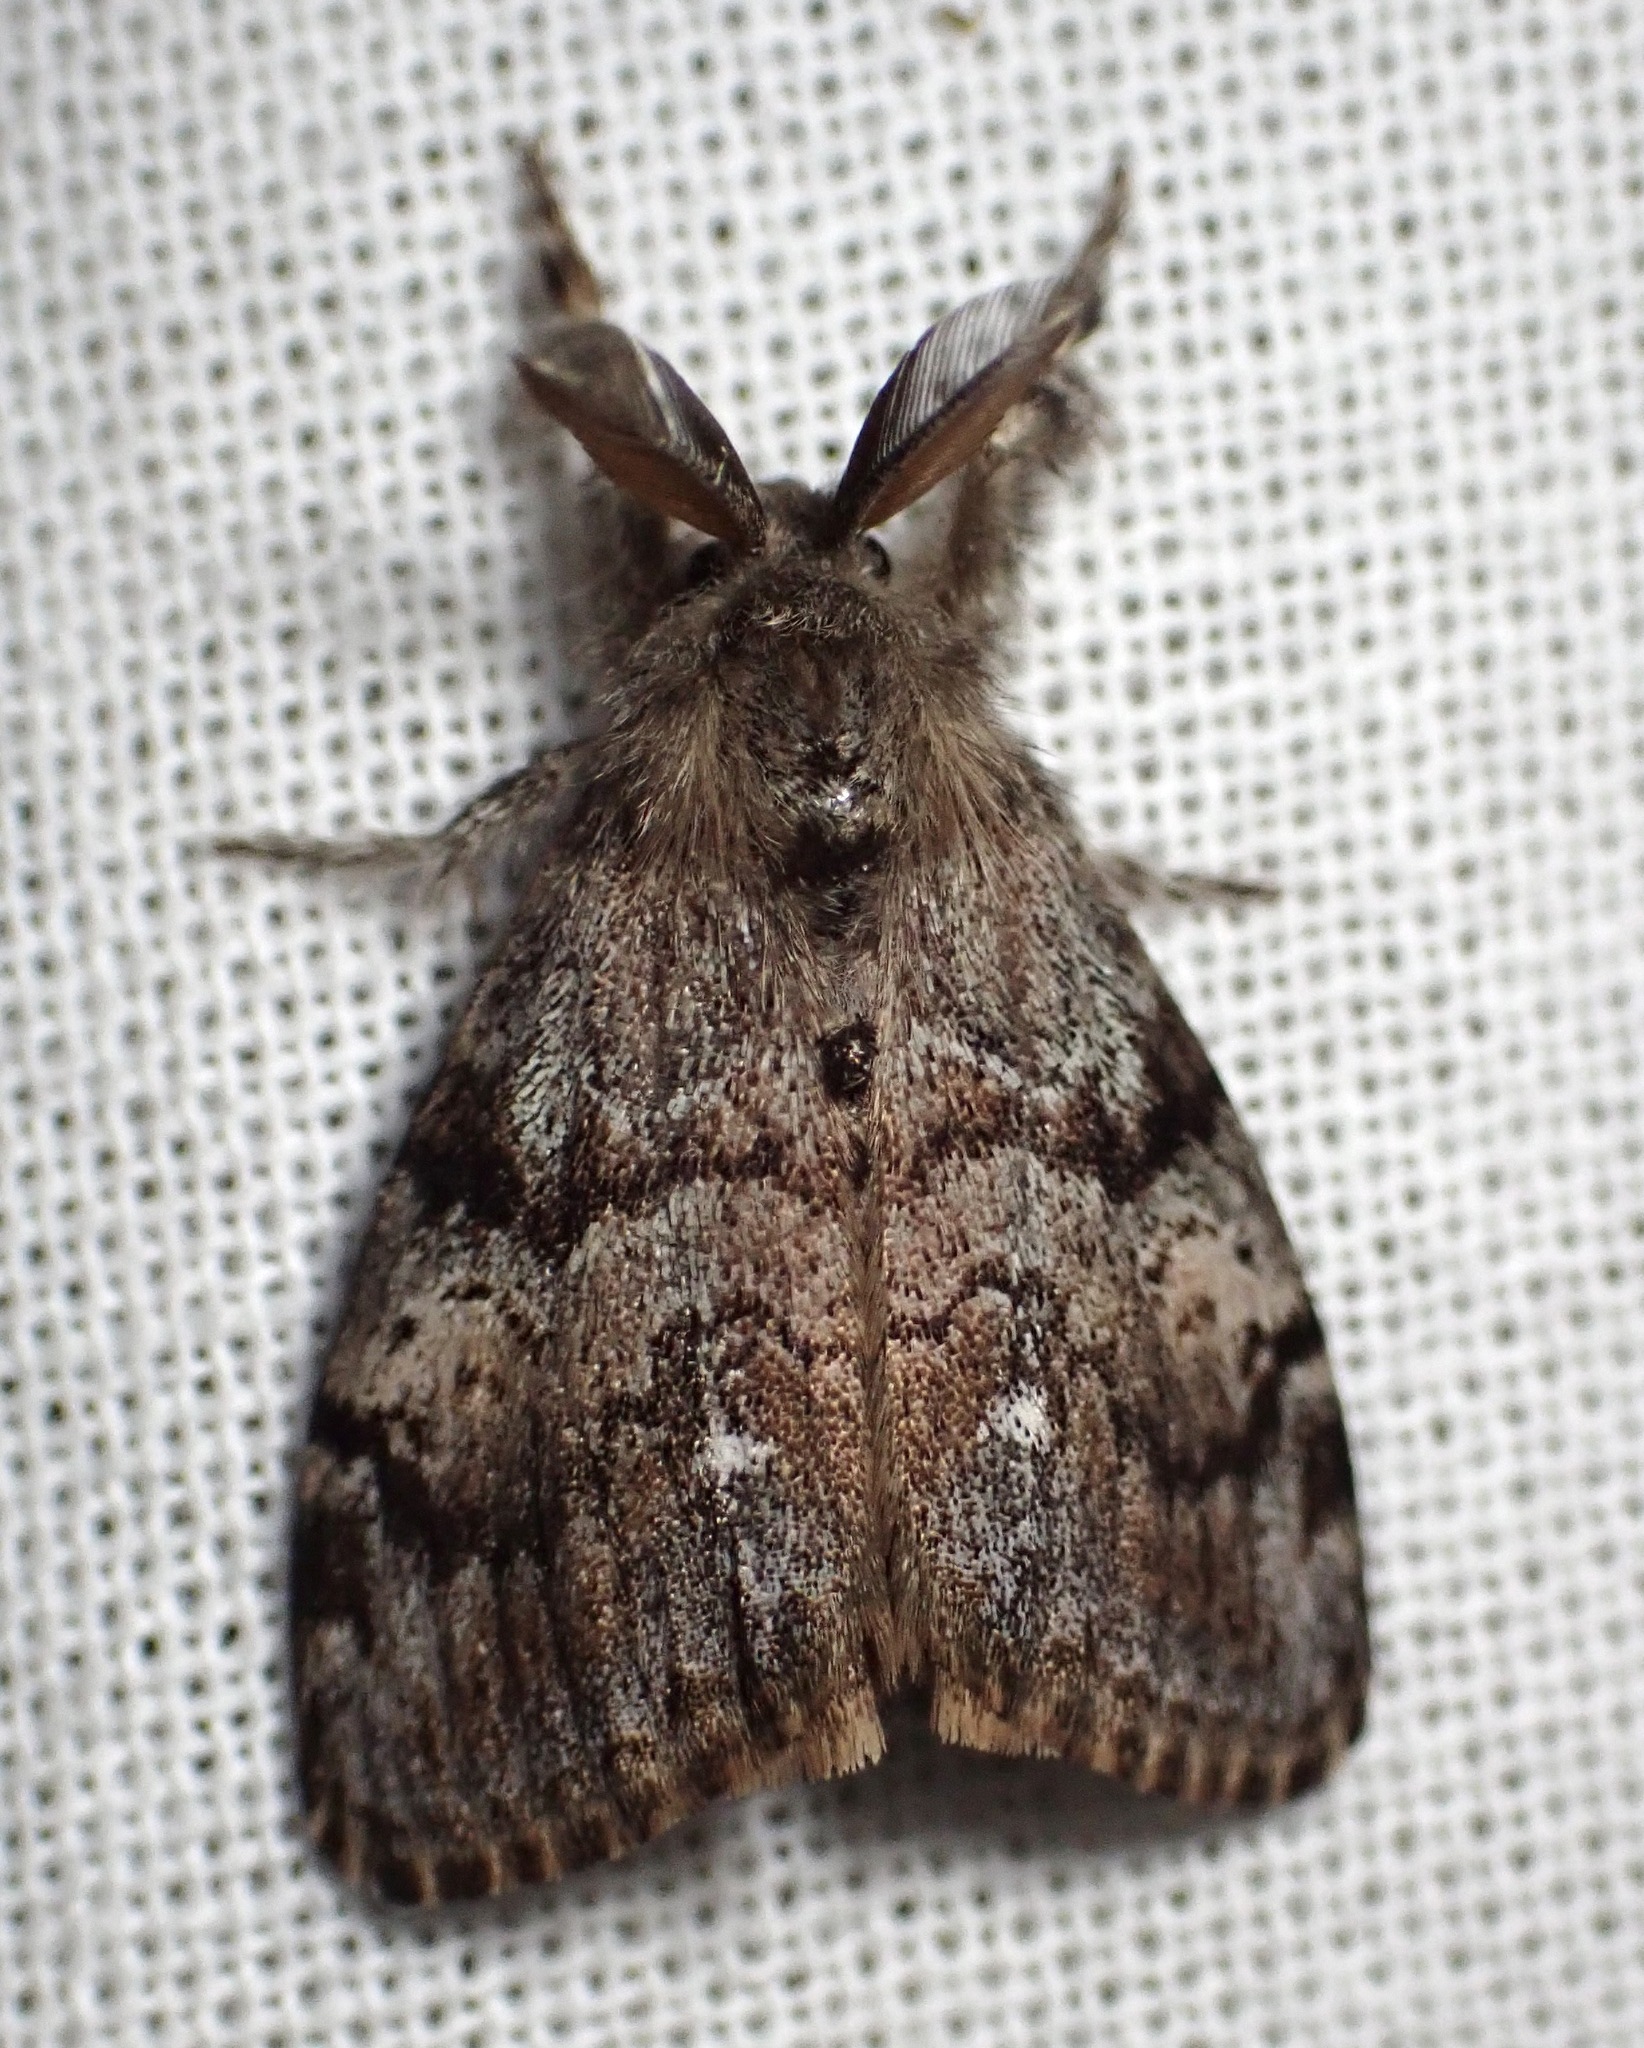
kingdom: Animalia
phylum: Arthropoda
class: Insecta
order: Lepidoptera
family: Erebidae
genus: Orgyia
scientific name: Orgyia vetusta
